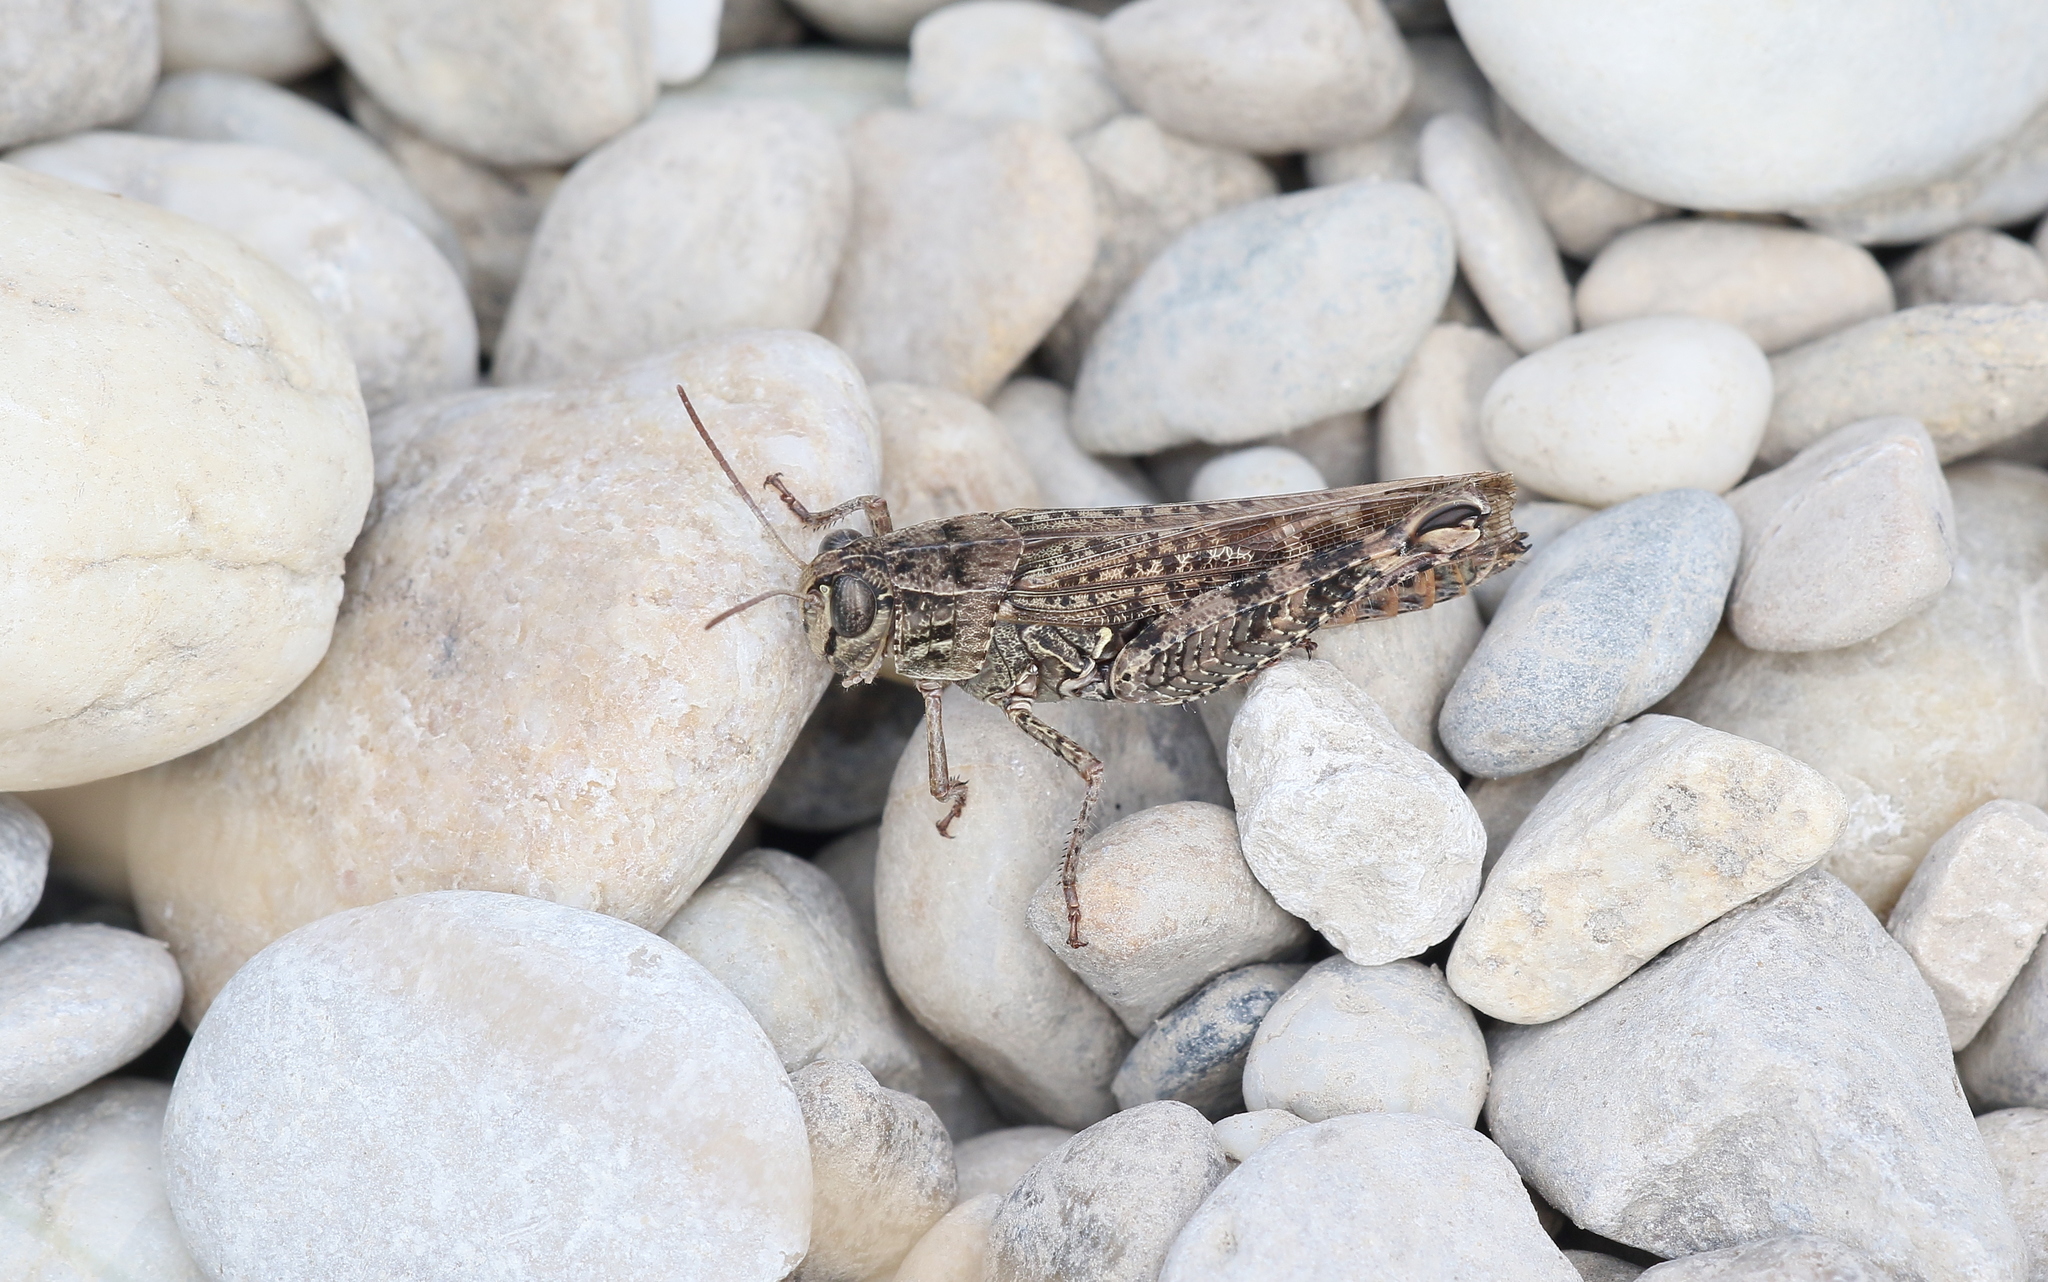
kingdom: Animalia
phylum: Arthropoda
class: Insecta
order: Orthoptera
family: Acrididae
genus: Calliptamus
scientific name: Calliptamus italicus
